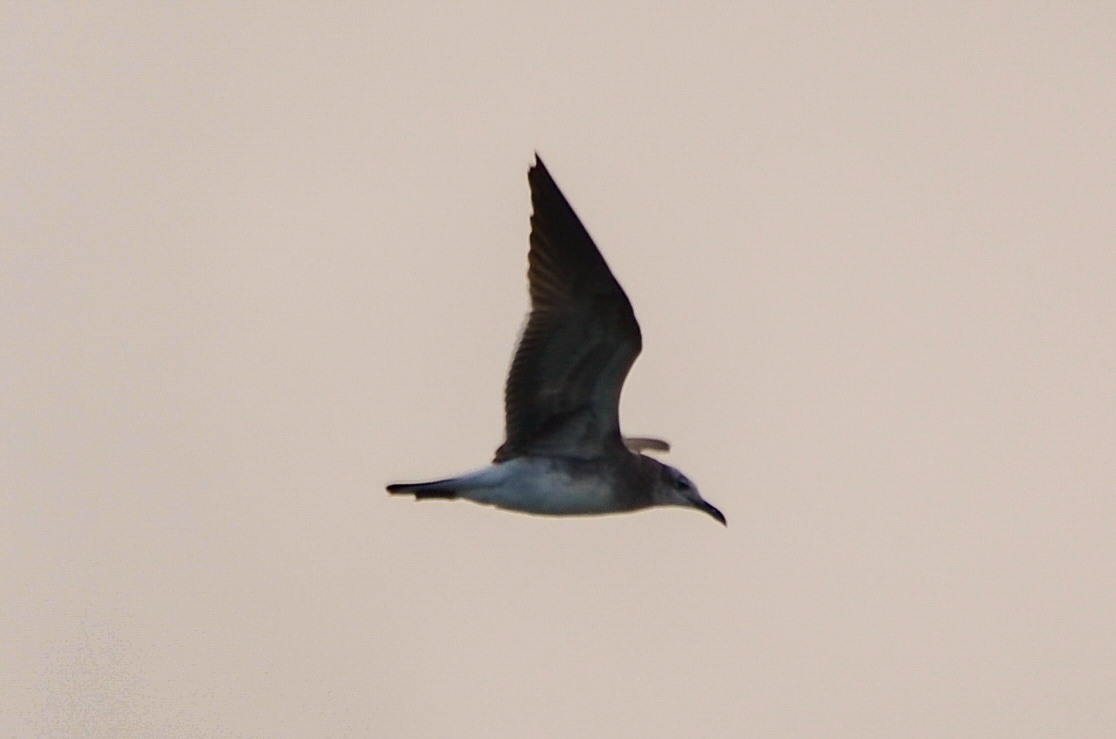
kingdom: Animalia
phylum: Chordata
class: Aves
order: Charadriiformes
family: Laridae
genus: Leucophaeus
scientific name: Leucophaeus atricilla
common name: Laughing gull
